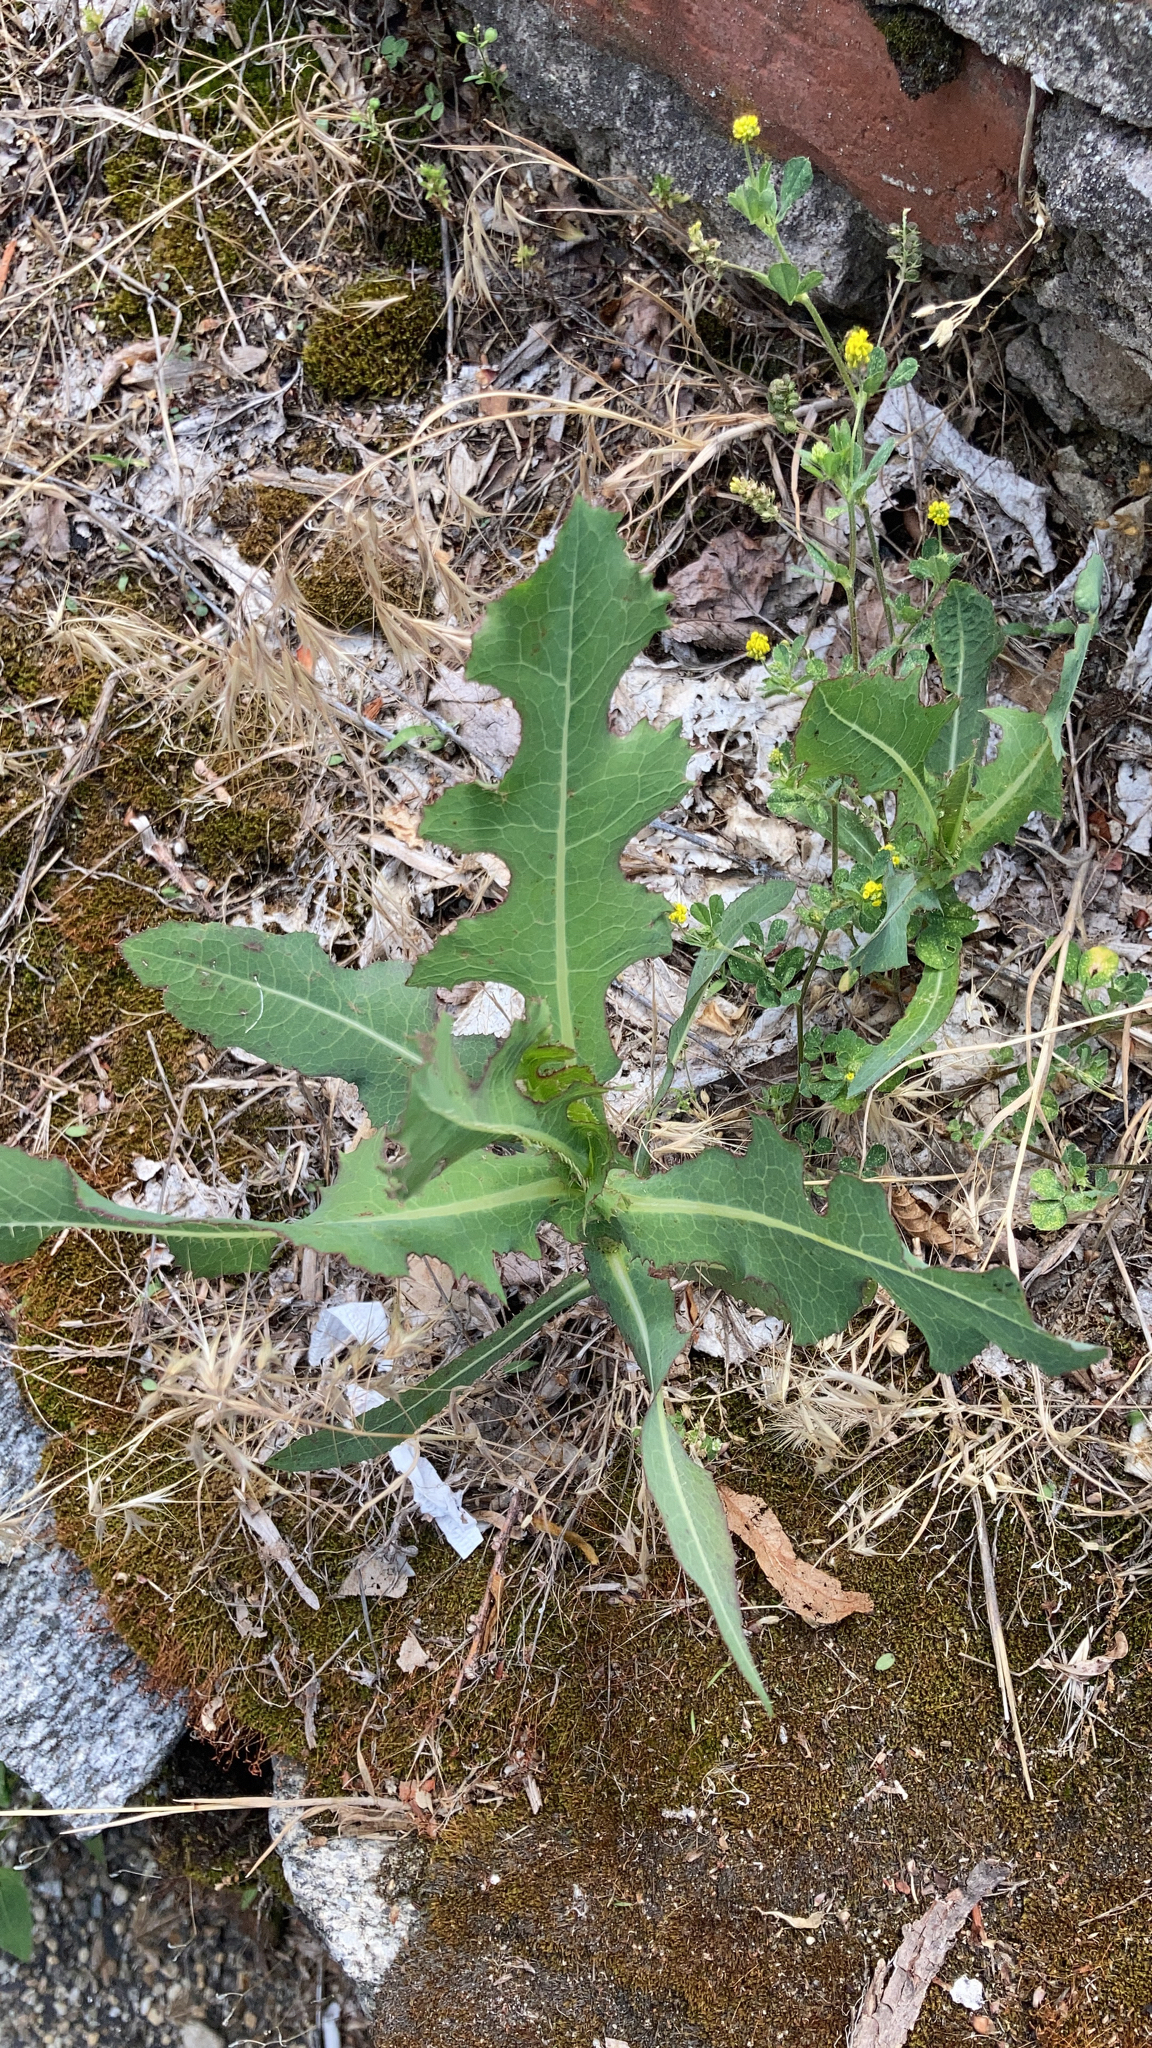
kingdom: Plantae
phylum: Tracheophyta
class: Magnoliopsida
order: Asterales
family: Asteraceae
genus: Lactuca
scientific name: Lactuca serriola
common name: Prickly lettuce
